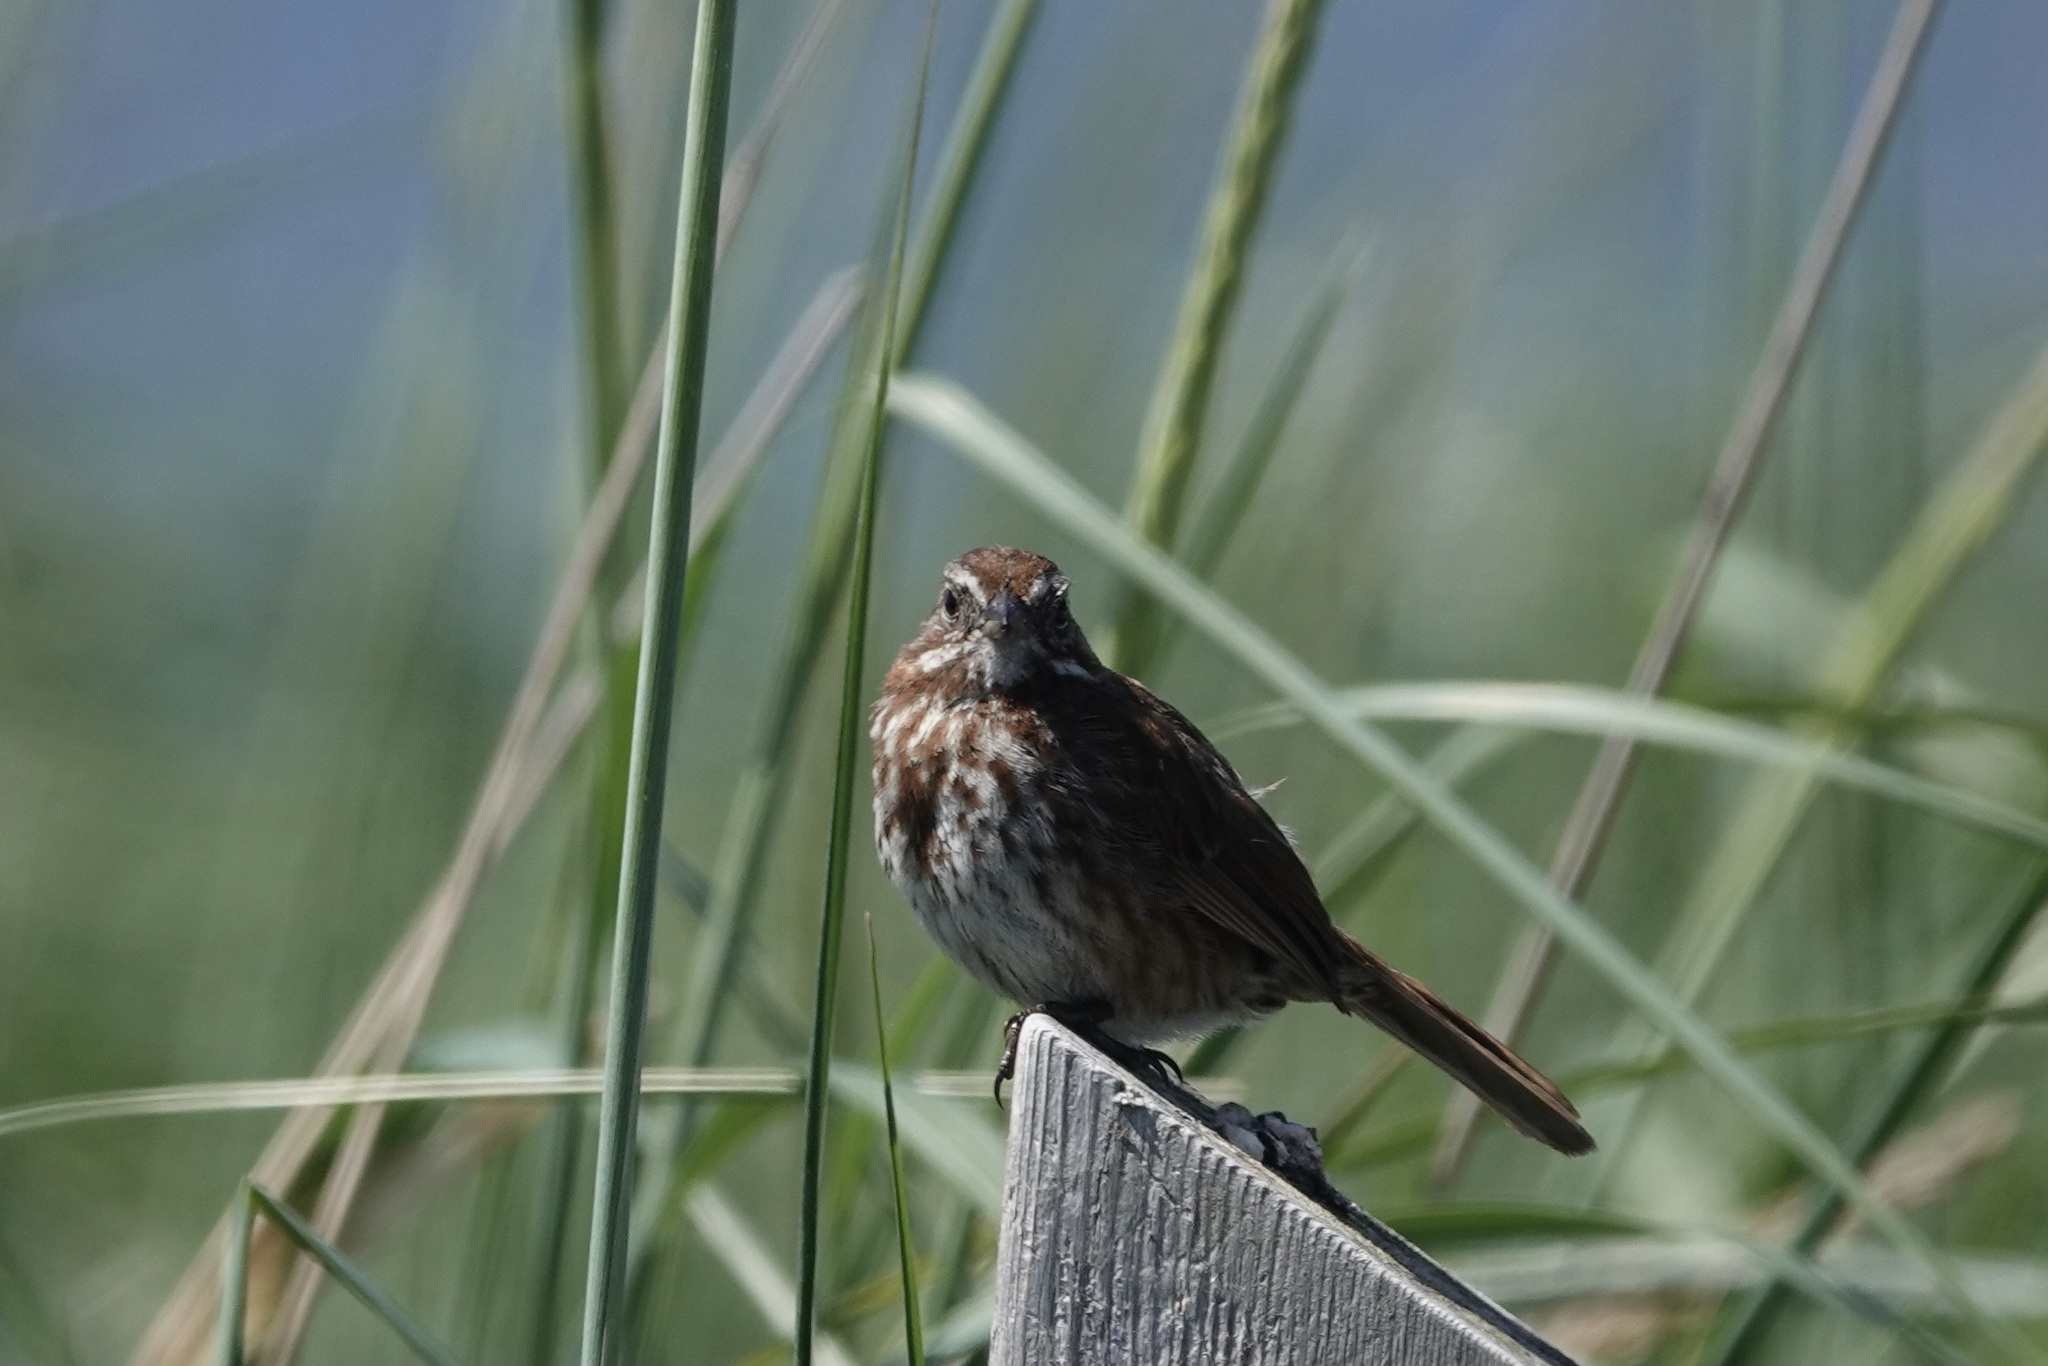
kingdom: Animalia
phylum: Chordata
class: Aves
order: Passeriformes
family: Passerellidae
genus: Melospiza
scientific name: Melospiza melodia
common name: Song sparrow
